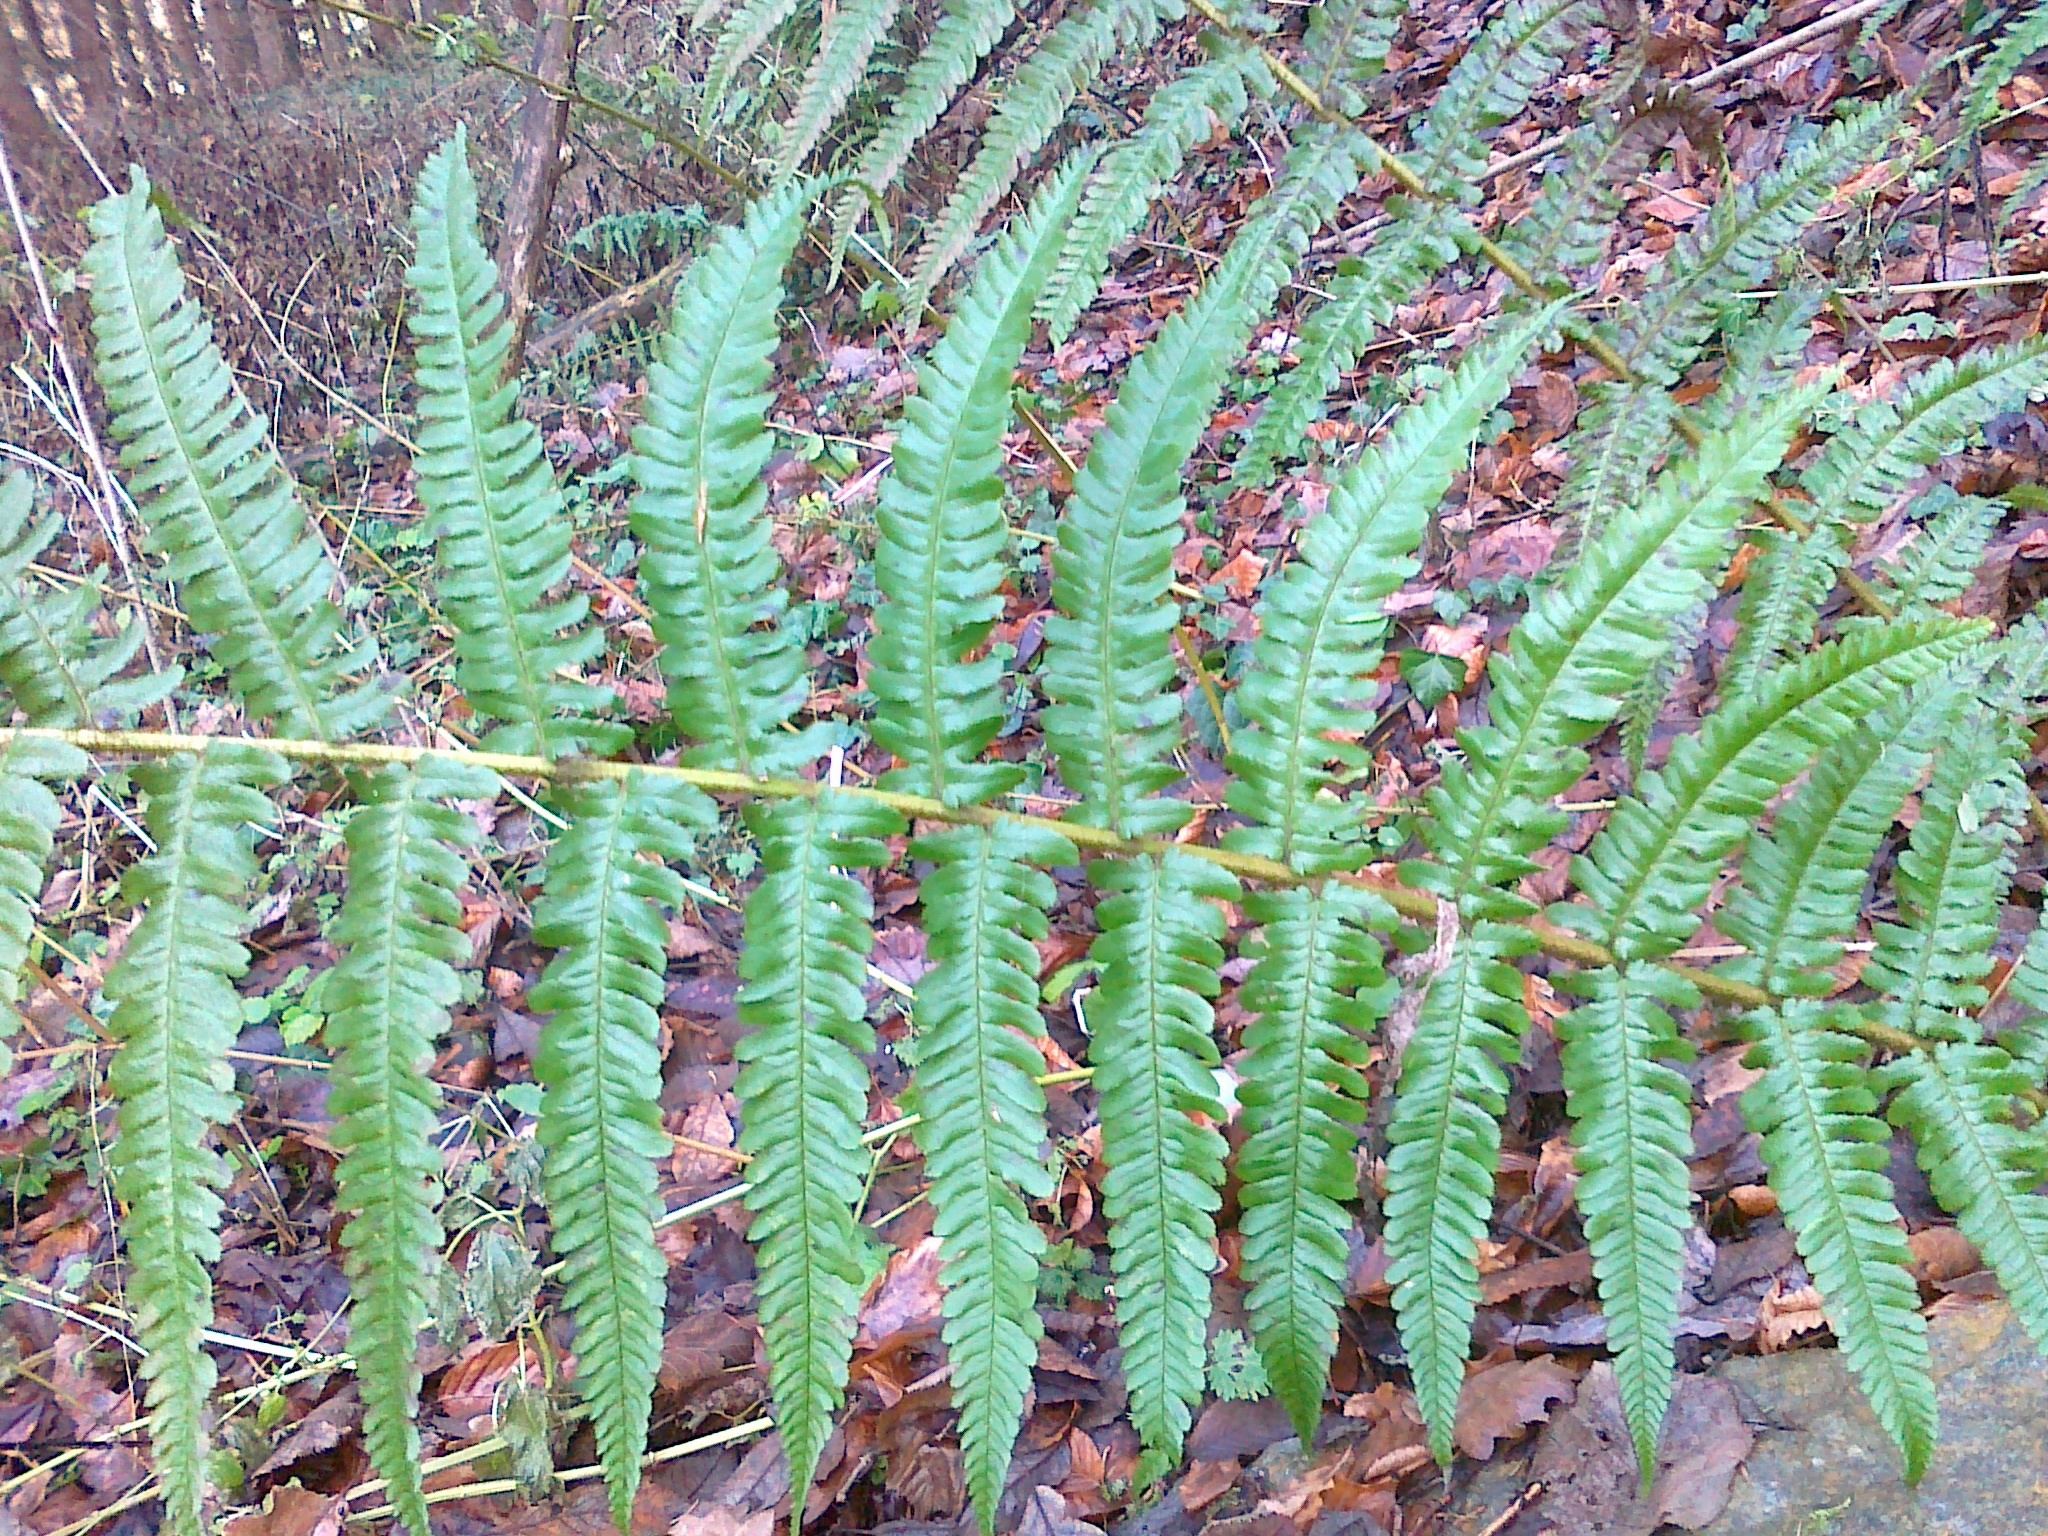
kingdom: Plantae
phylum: Tracheophyta
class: Polypodiopsida
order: Polypodiales
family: Dryopteridaceae
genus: Dryopteris
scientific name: Dryopteris borreri
